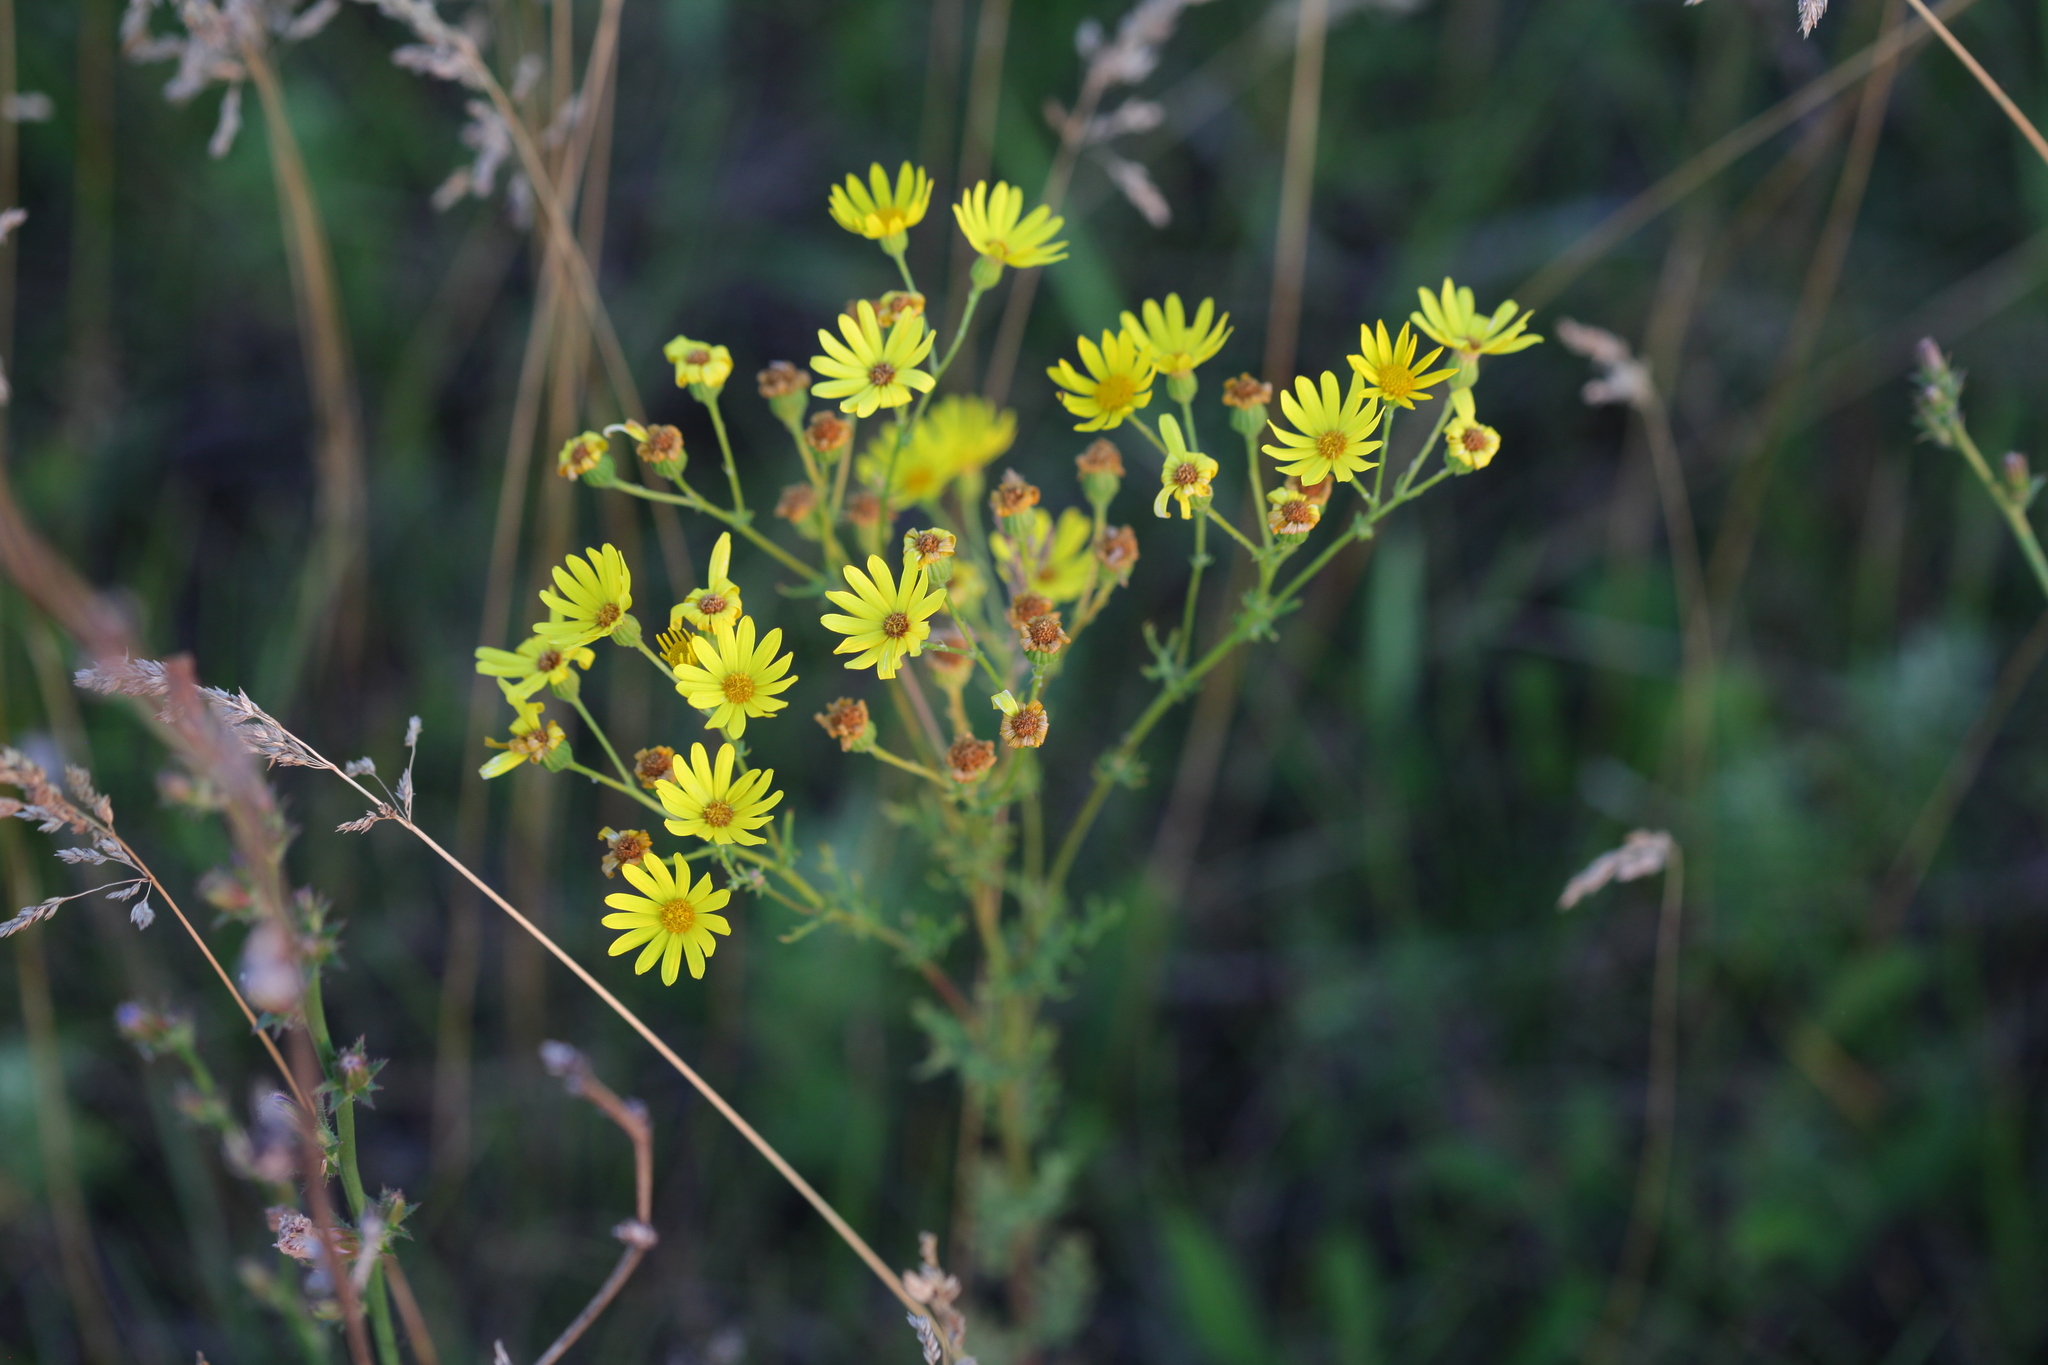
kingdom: Plantae
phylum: Tracheophyta
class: Magnoliopsida
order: Asterales
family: Asteraceae
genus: Jacobaea
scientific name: Jacobaea erucifolia
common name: Hoary ragwort
